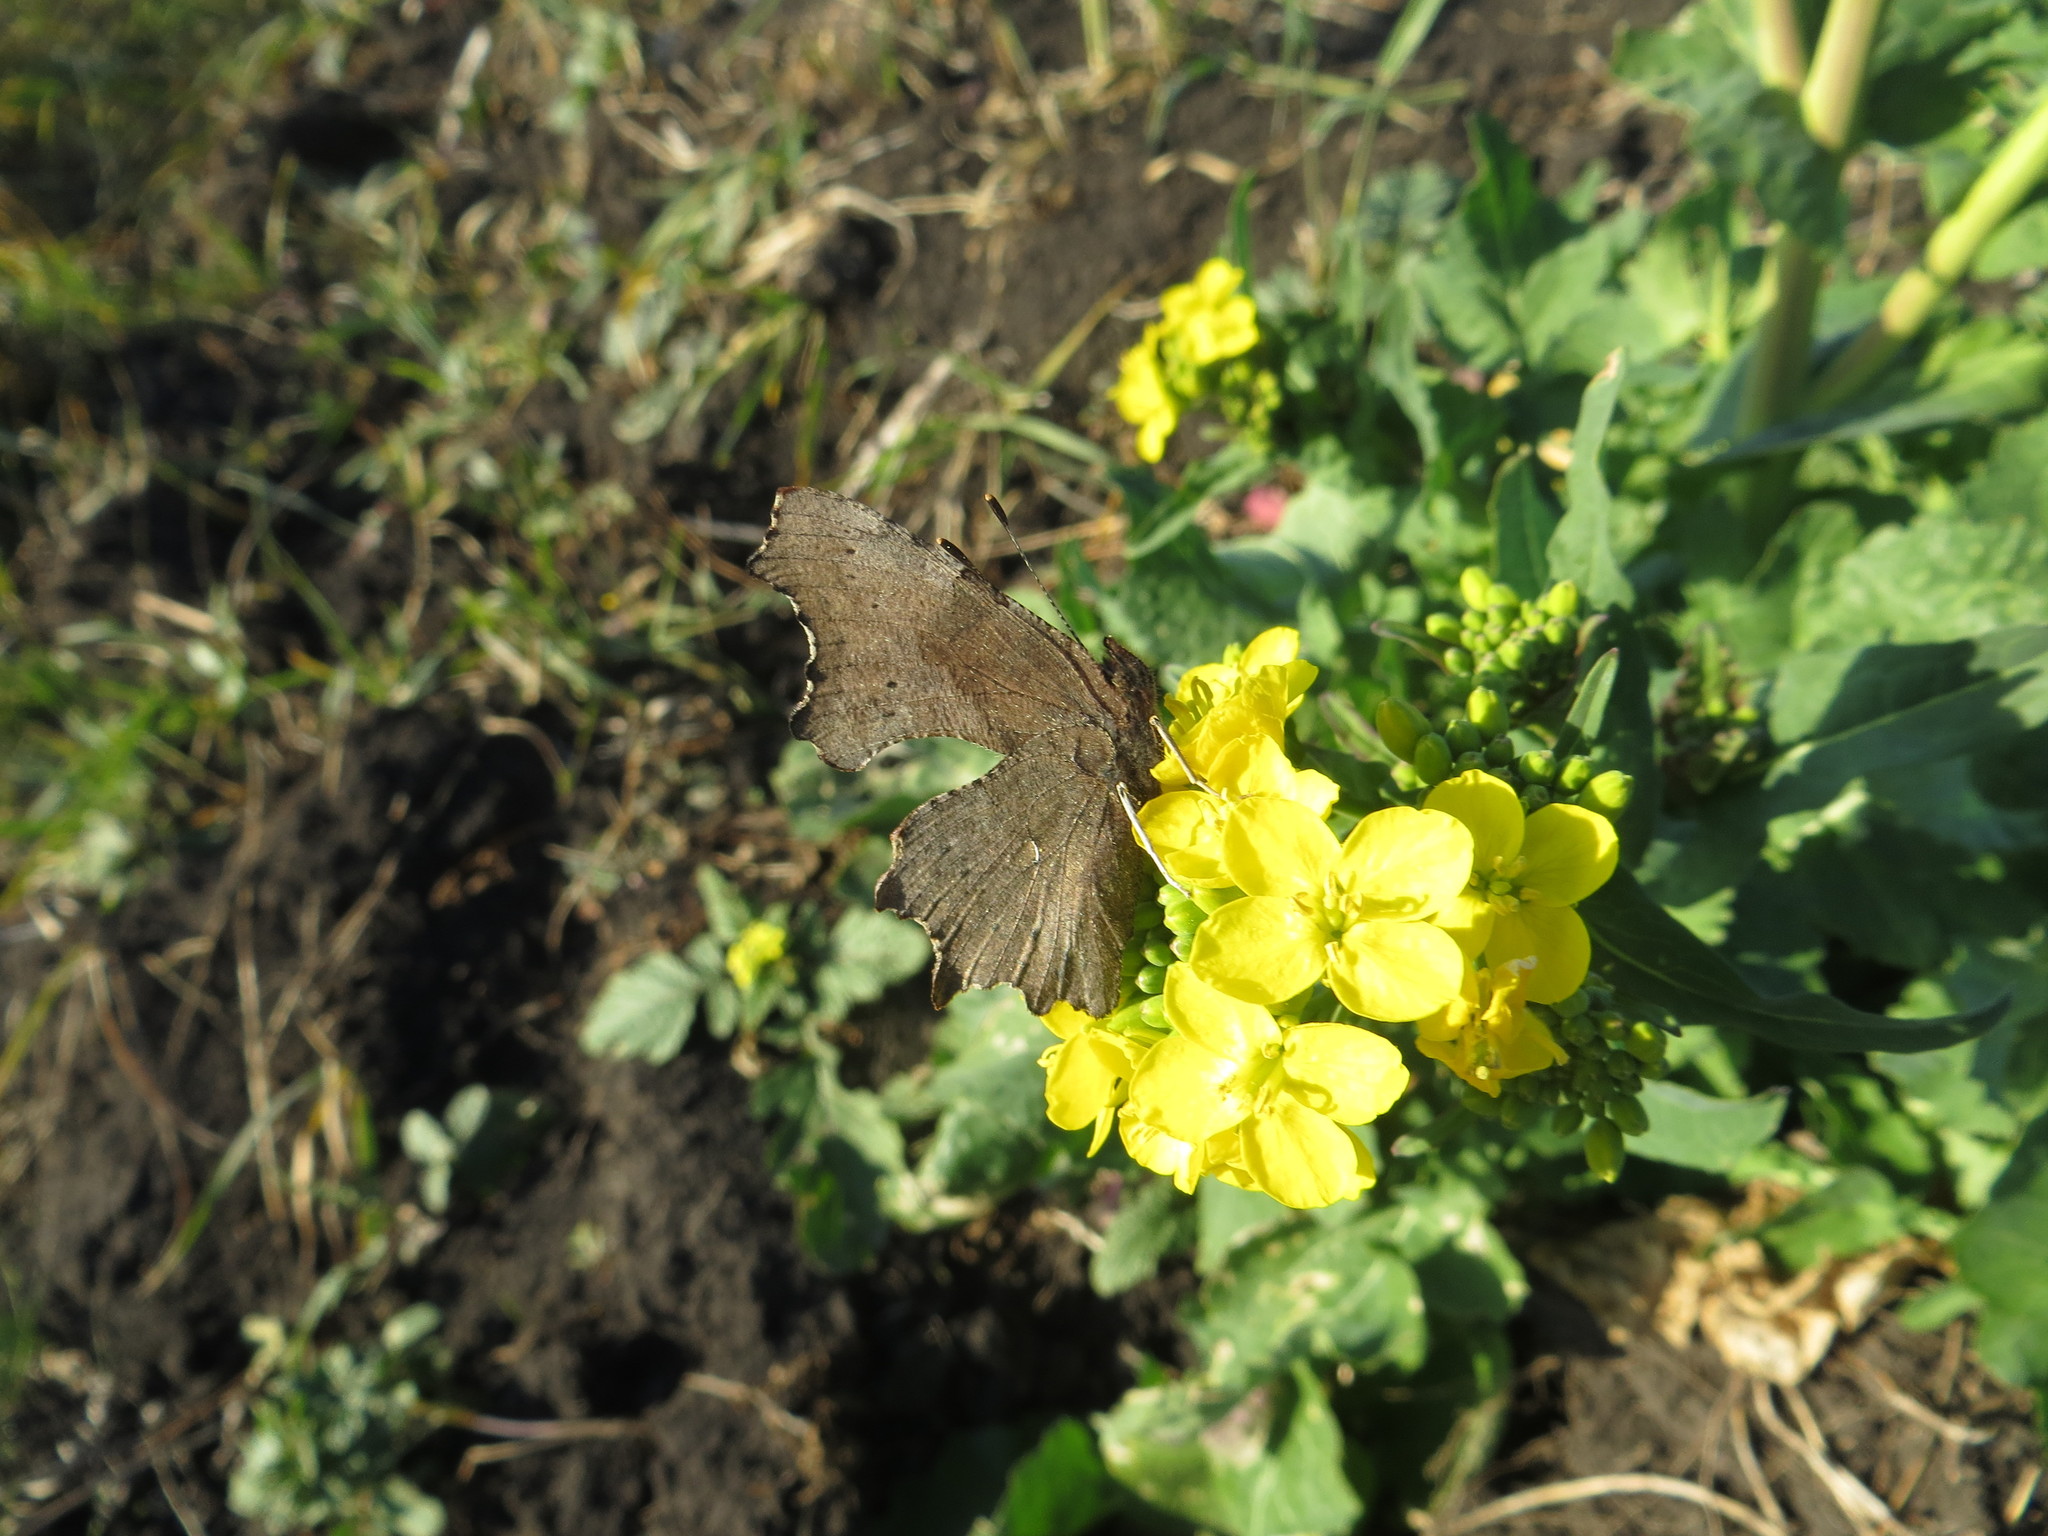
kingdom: Animalia
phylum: Arthropoda
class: Insecta
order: Lepidoptera
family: Nymphalidae
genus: Polygonia
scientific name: Polygonia c-album
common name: Comma
